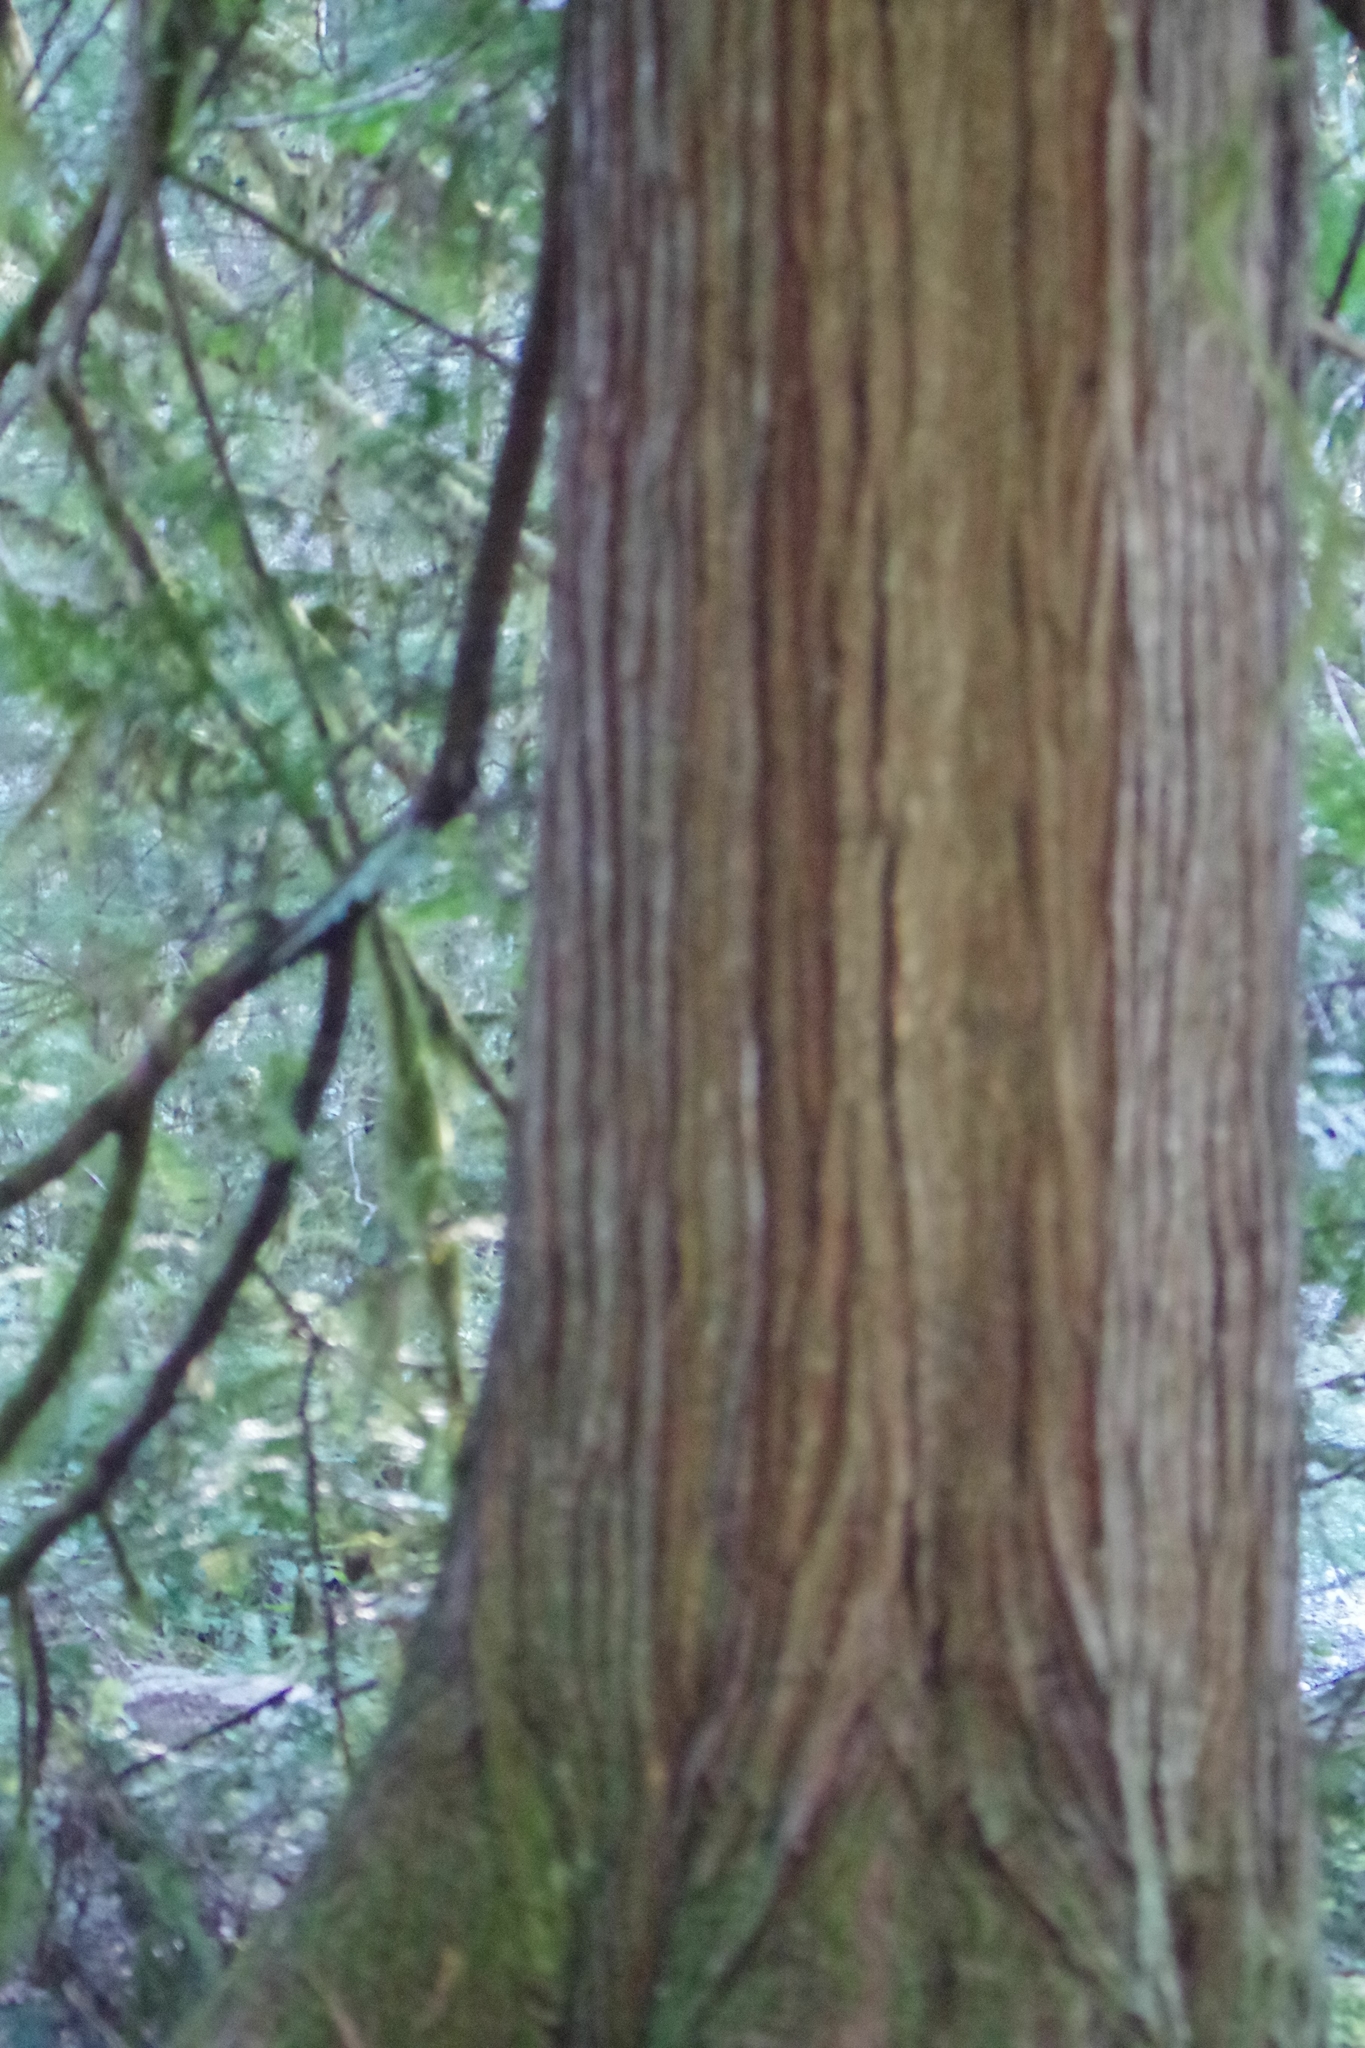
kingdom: Plantae
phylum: Tracheophyta
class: Pinopsida
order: Pinales
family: Cupressaceae
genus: Thuja
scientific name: Thuja plicata
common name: Western red-cedar
